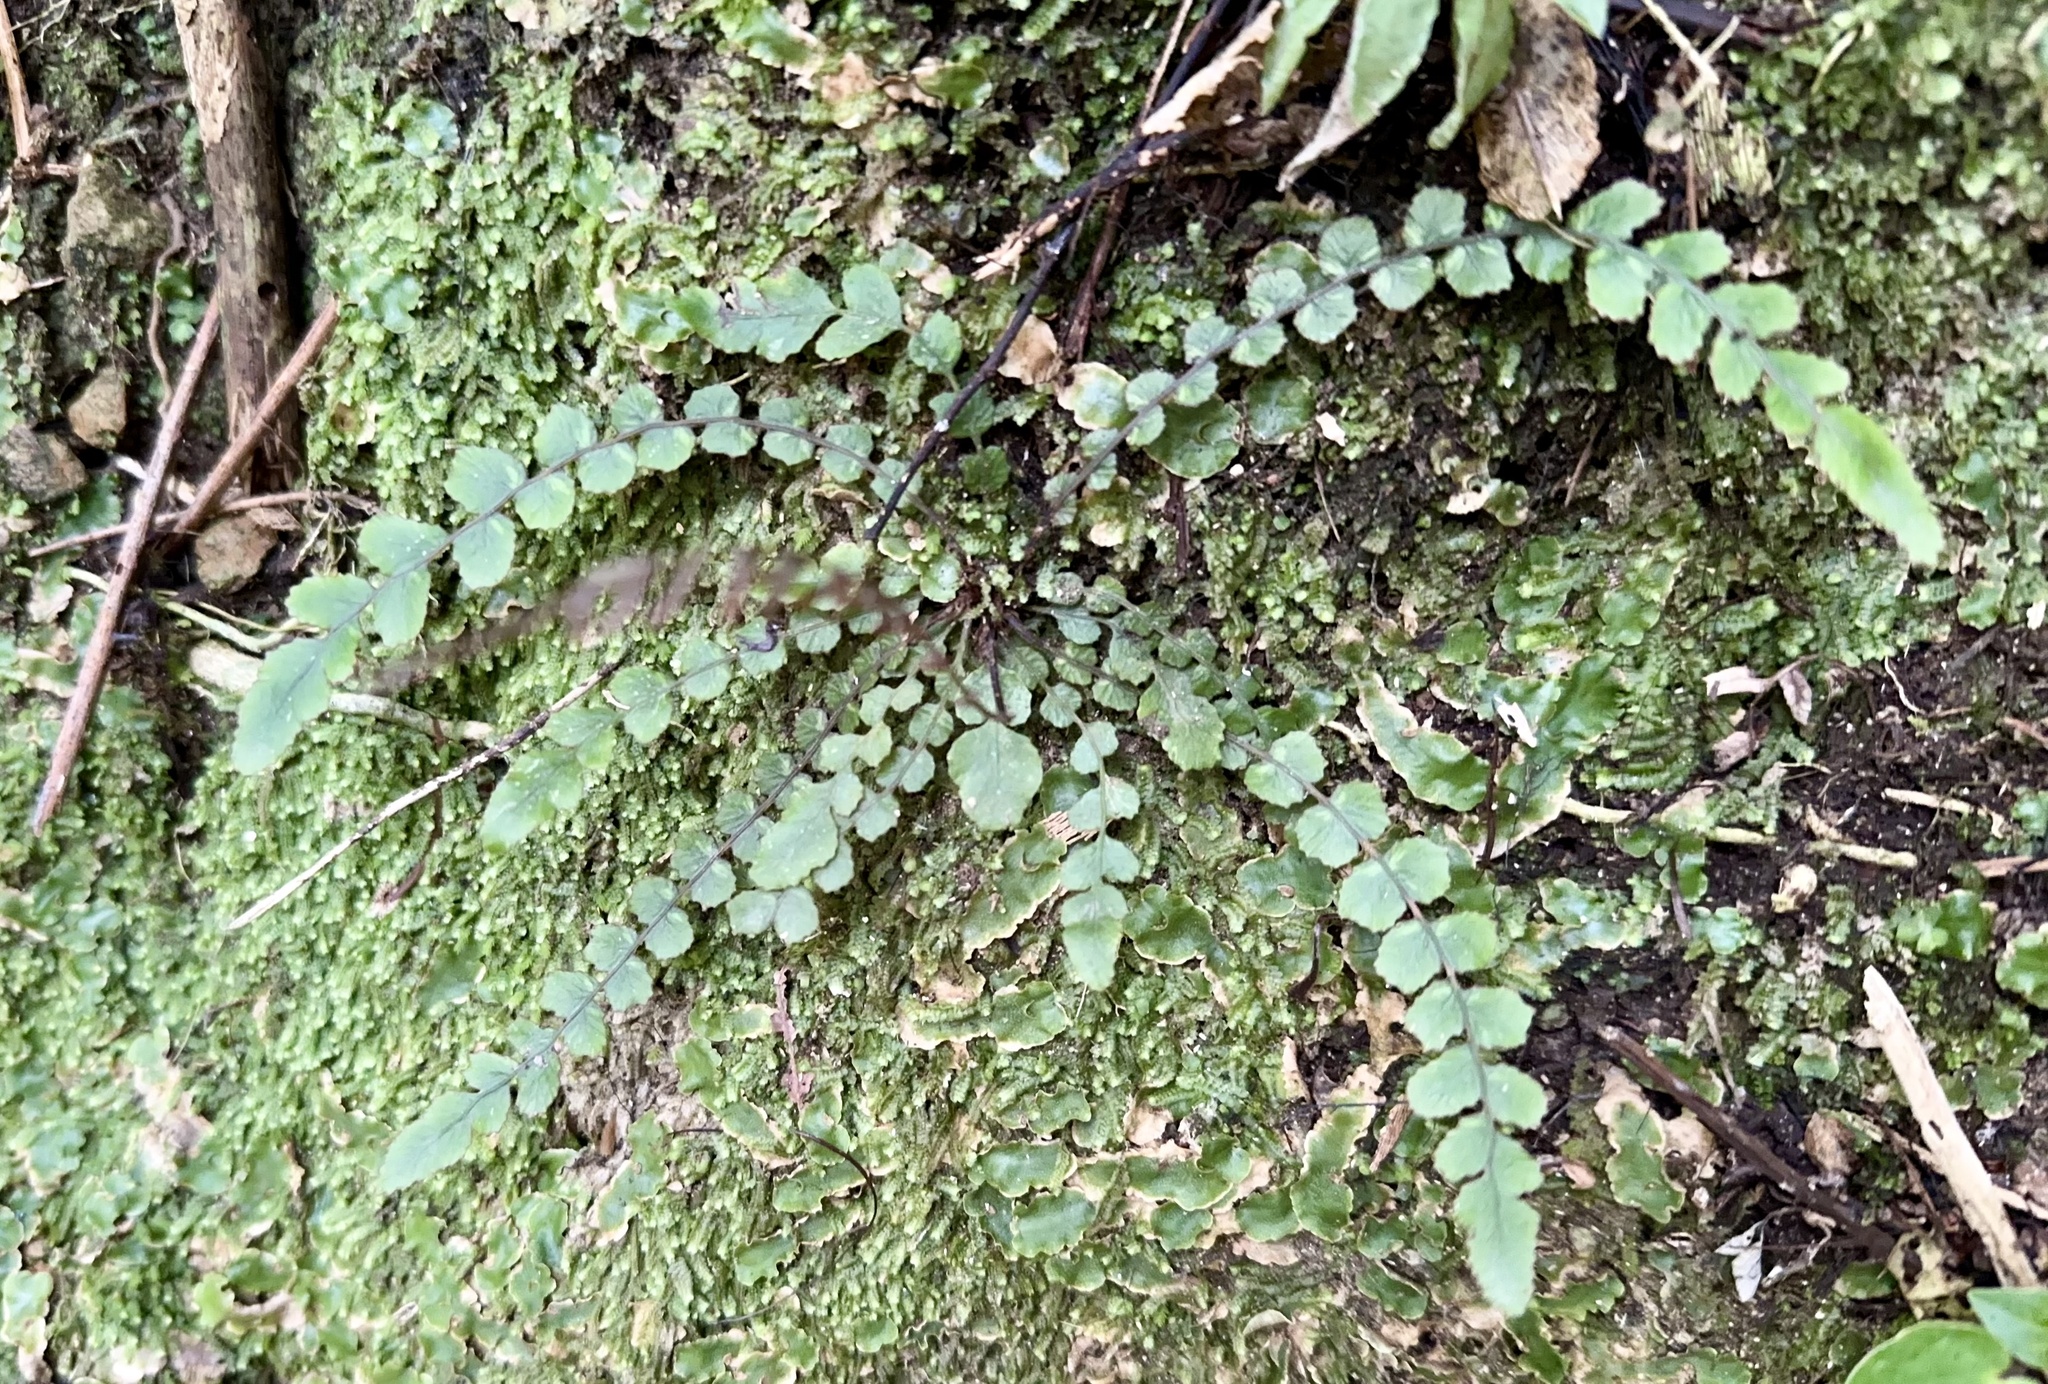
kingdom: Plantae
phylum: Tracheophyta
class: Polypodiopsida
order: Polypodiales
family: Blechnaceae
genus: Austroblechnum
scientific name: Austroblechnum membranaceum
